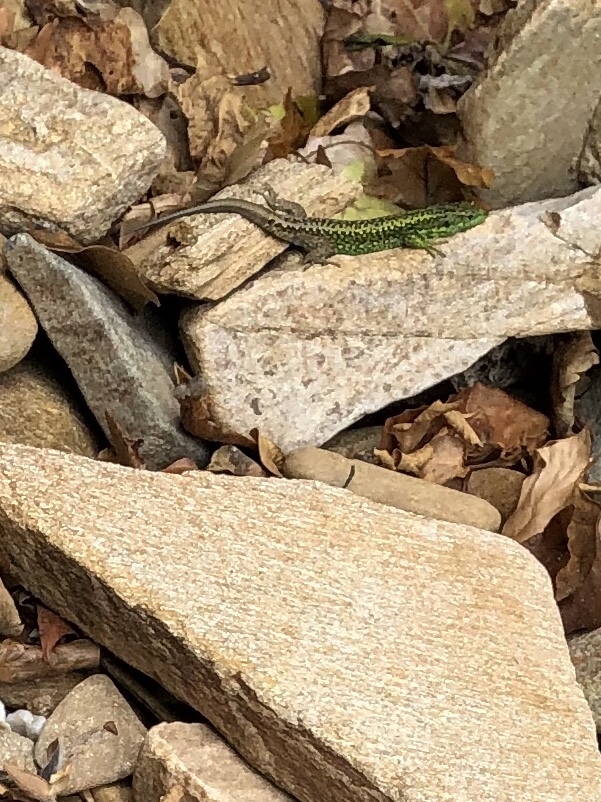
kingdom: Animalia
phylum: Chordata
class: Squamata
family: Lacertidae
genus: Iberolacerta
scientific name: Iberolacerta monticola
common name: Iberian mountain lizard
